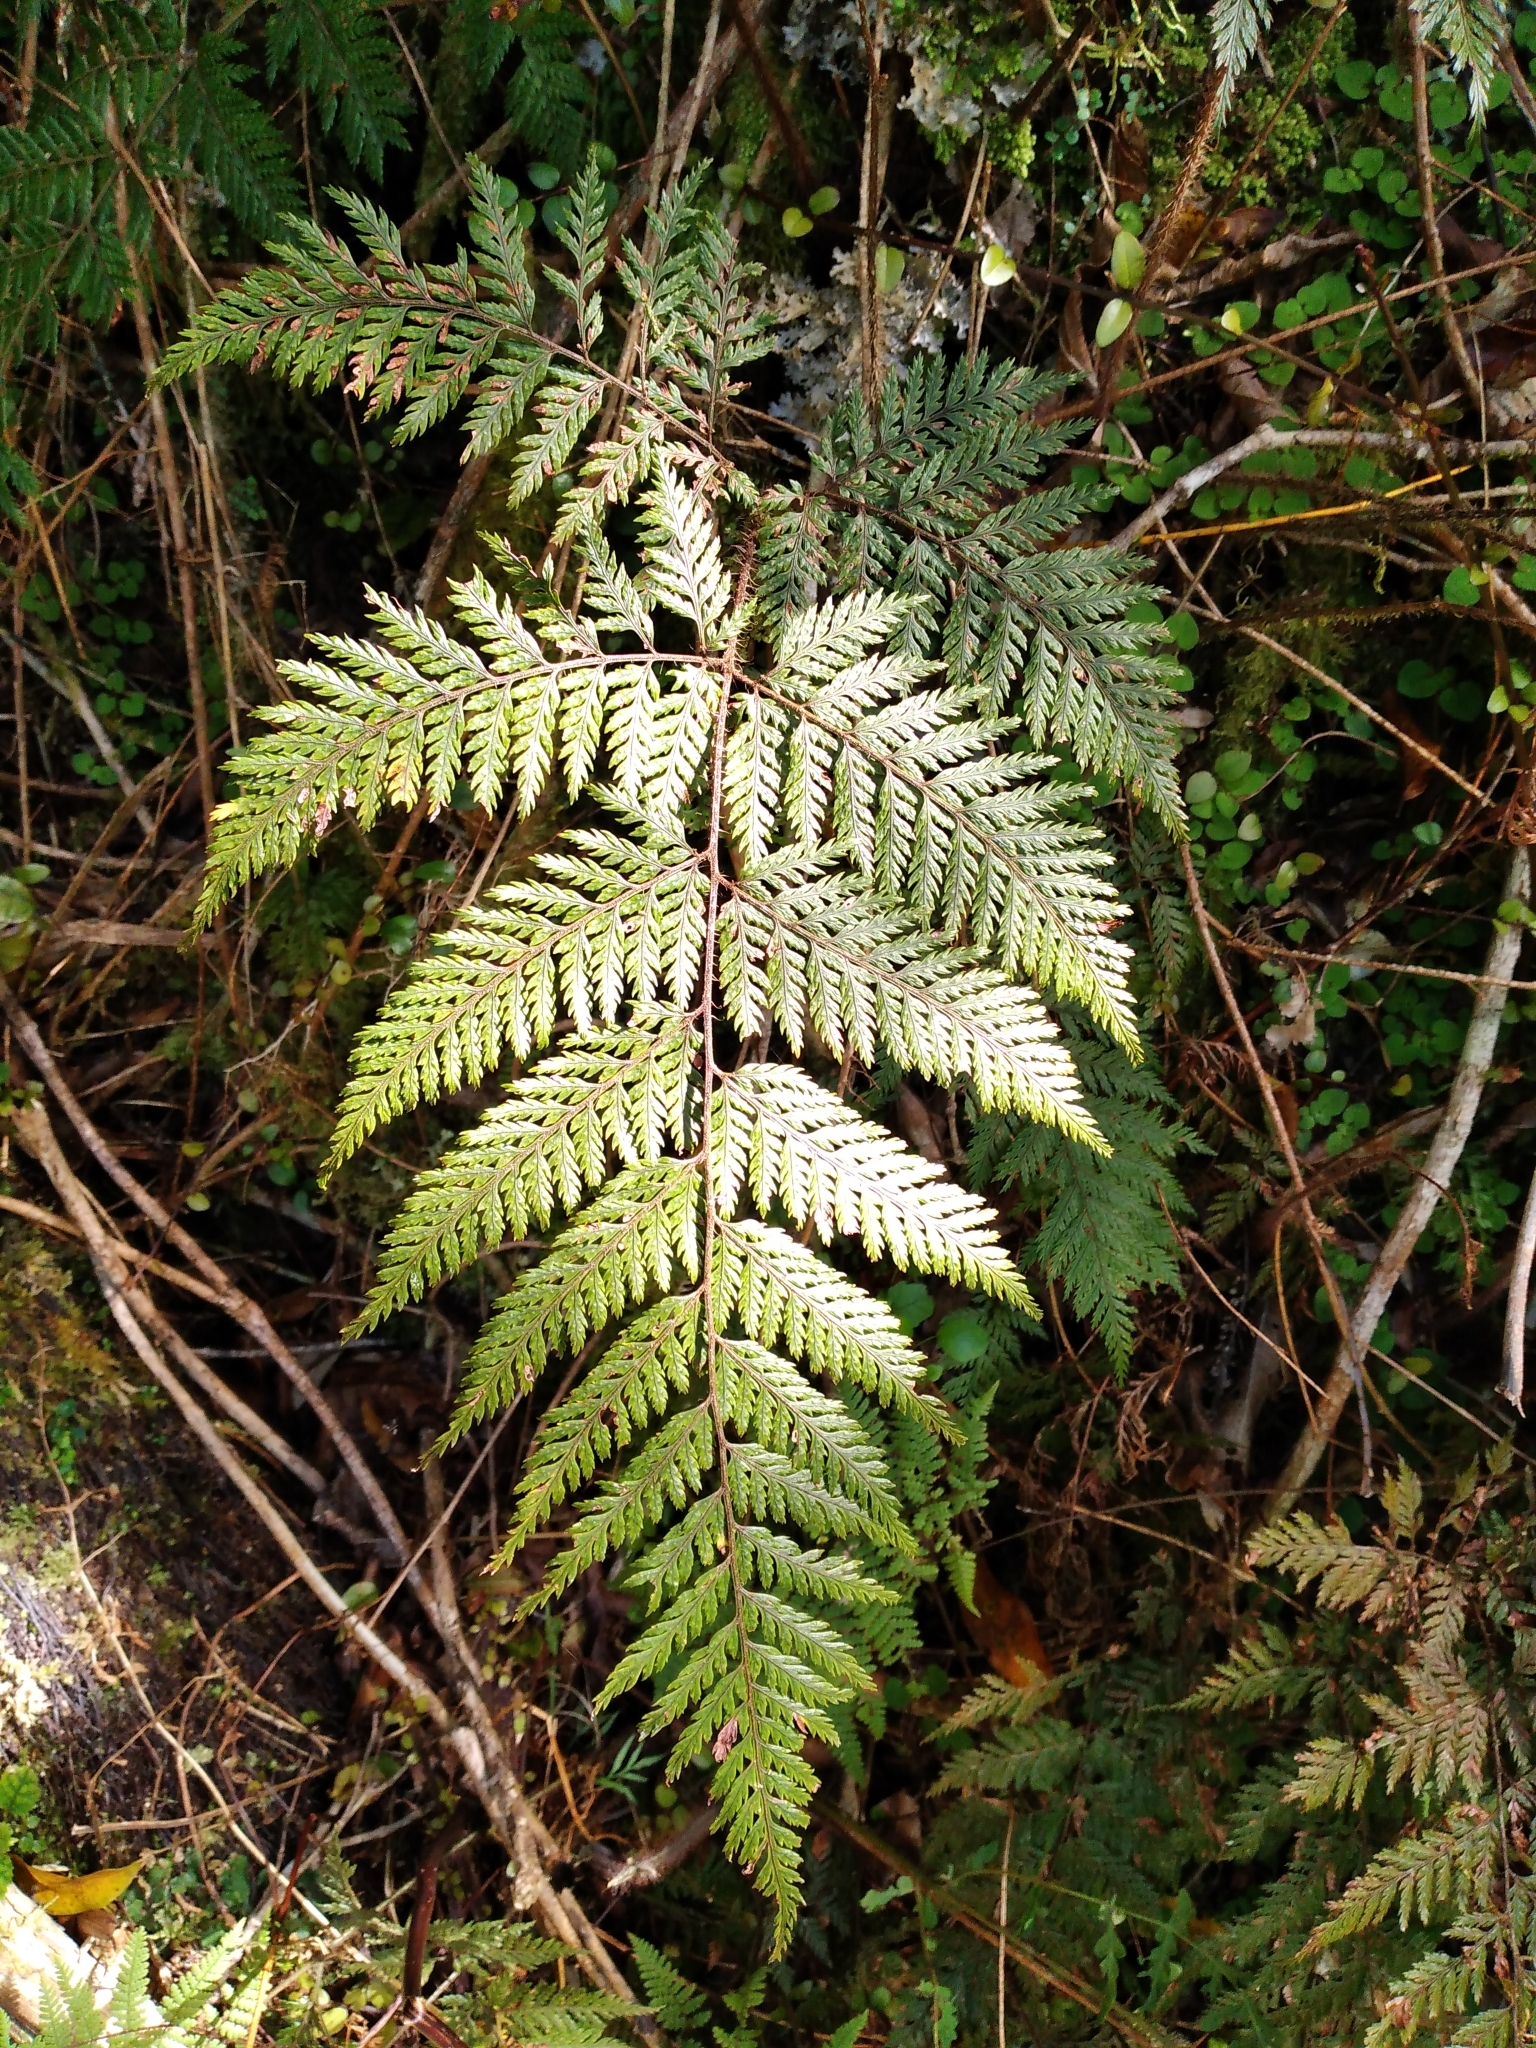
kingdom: Plantae
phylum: Tracheophyta
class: Polypodiopsida
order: Polypodiales
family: Dryopteridaceae
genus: Lastreopsis
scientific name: Lastreopsis hispida
